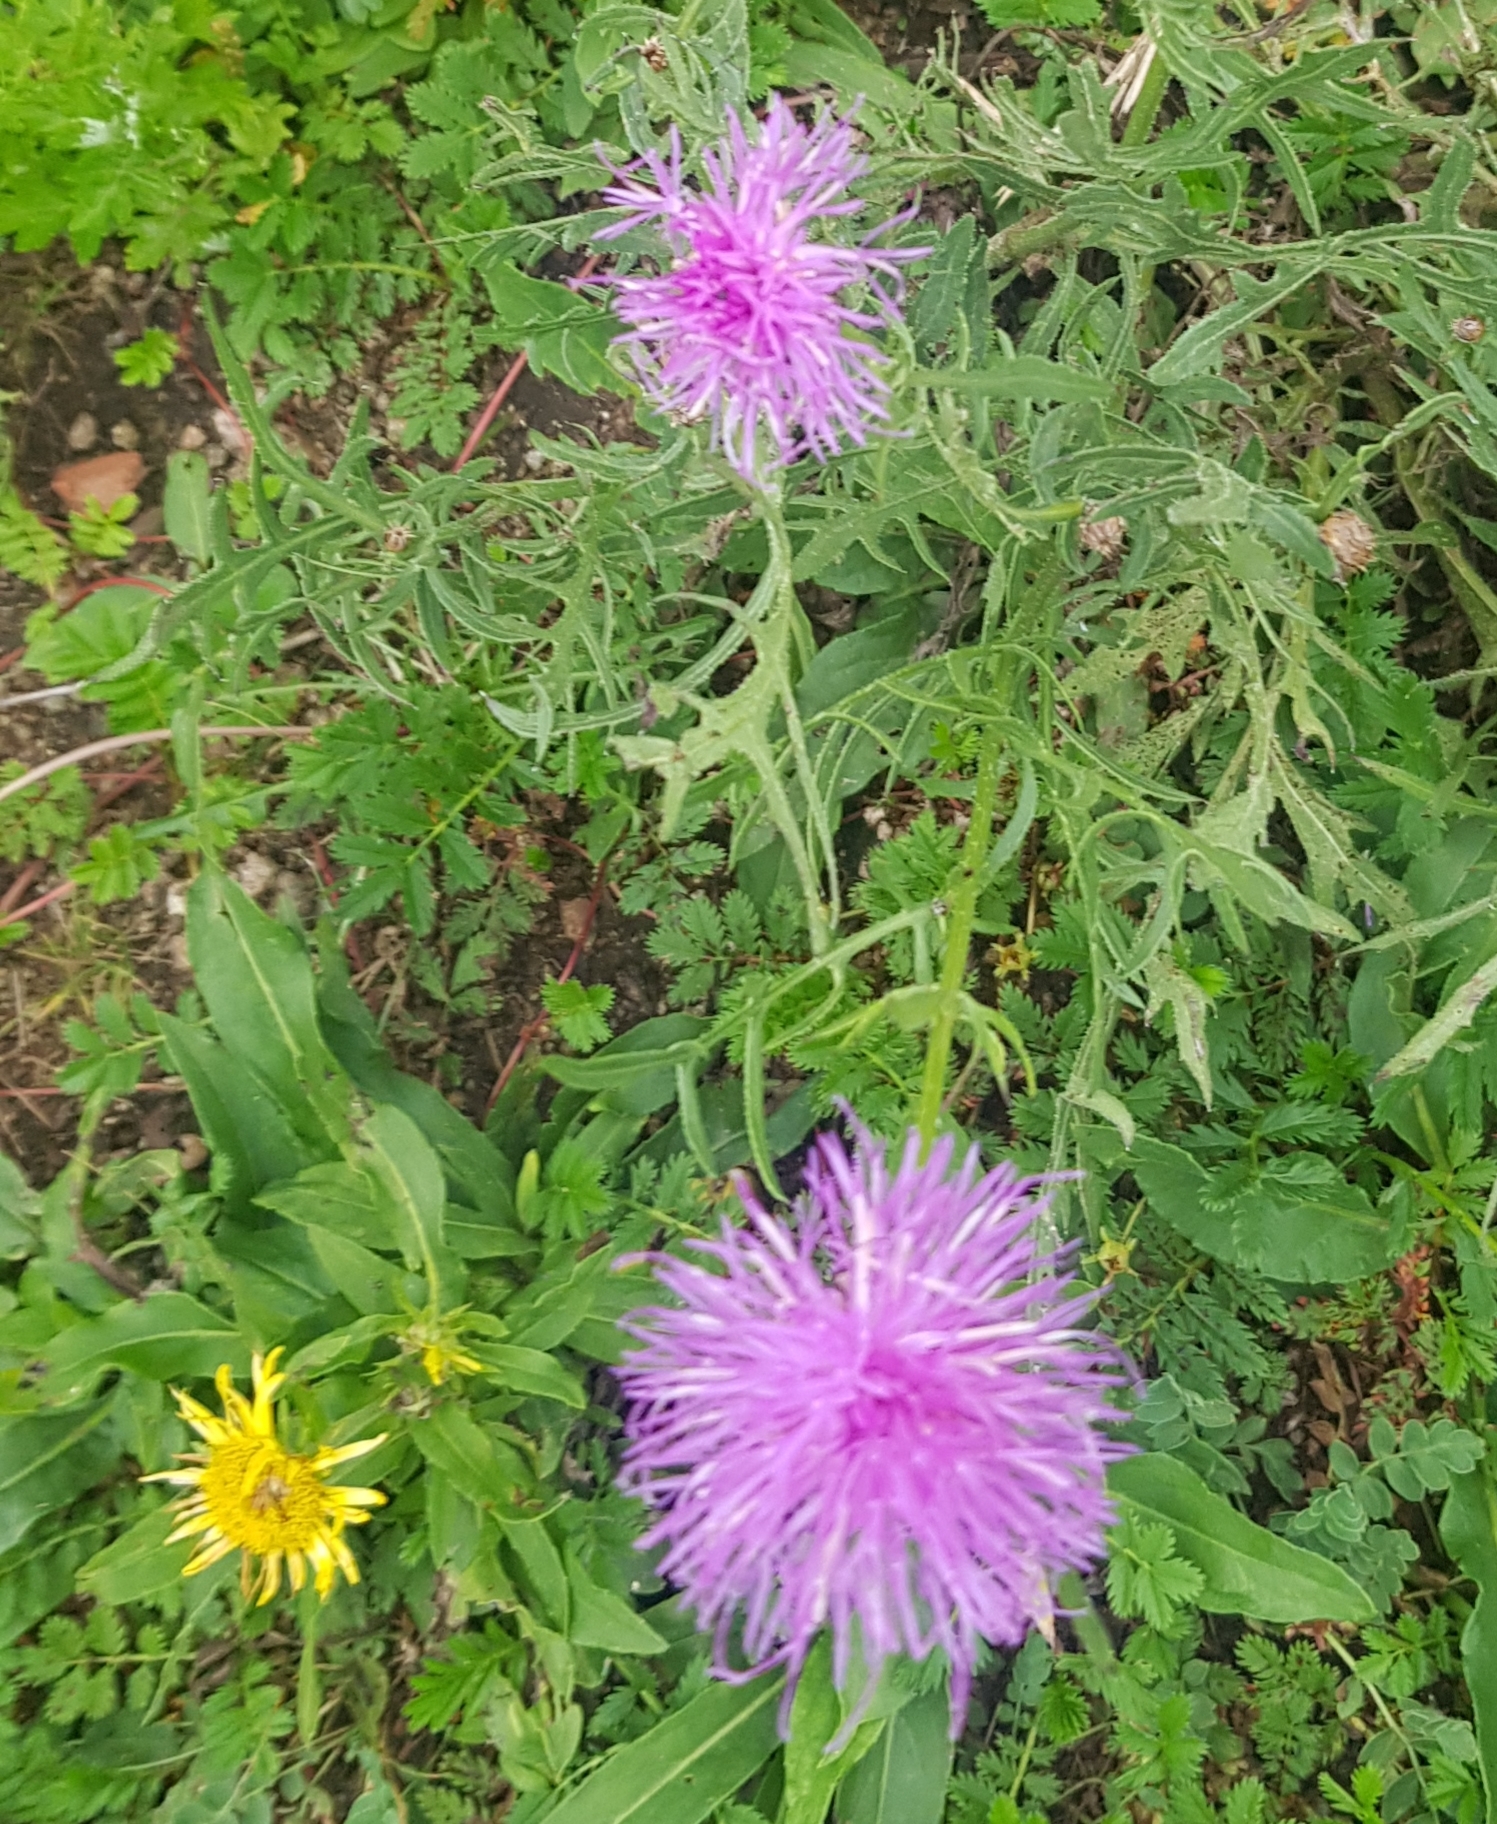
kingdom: Plantae
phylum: Tracheophyta
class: Magnoliopsida
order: Asterales
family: Asteraceae
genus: Klasea
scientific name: Klasea centauroides
